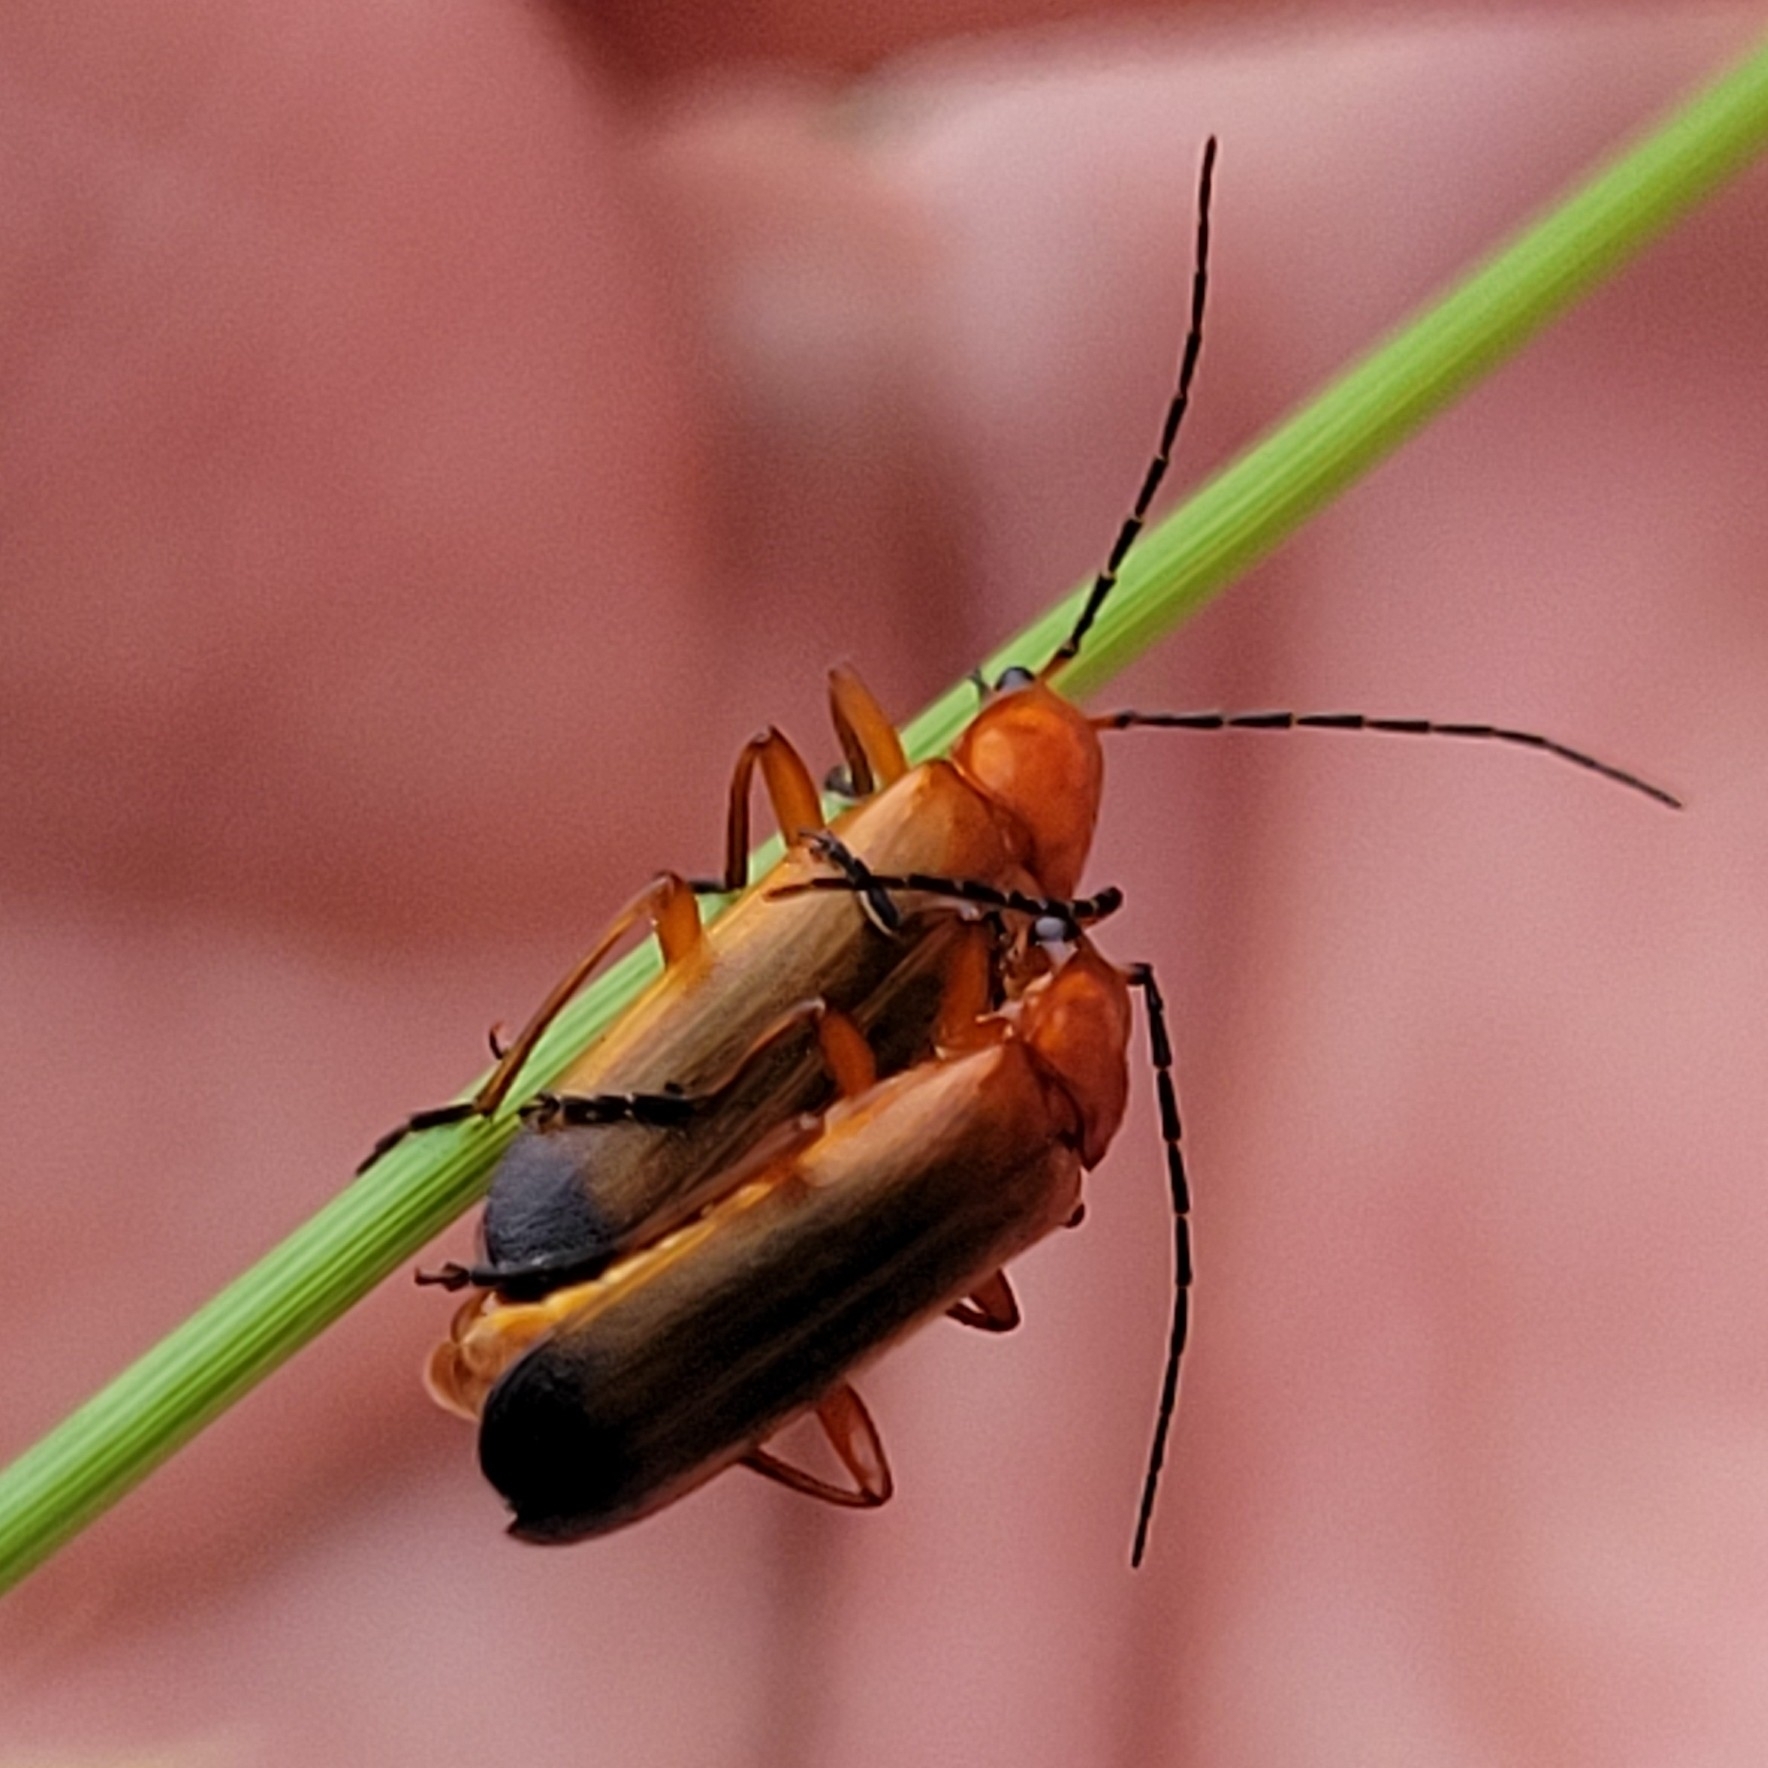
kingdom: Animalia
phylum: Arthropoda
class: Insecta
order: Coleoptera
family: Cantharidae
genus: Rhagonycha
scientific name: Rhagonycha fulva
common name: Common red soldier beetle
